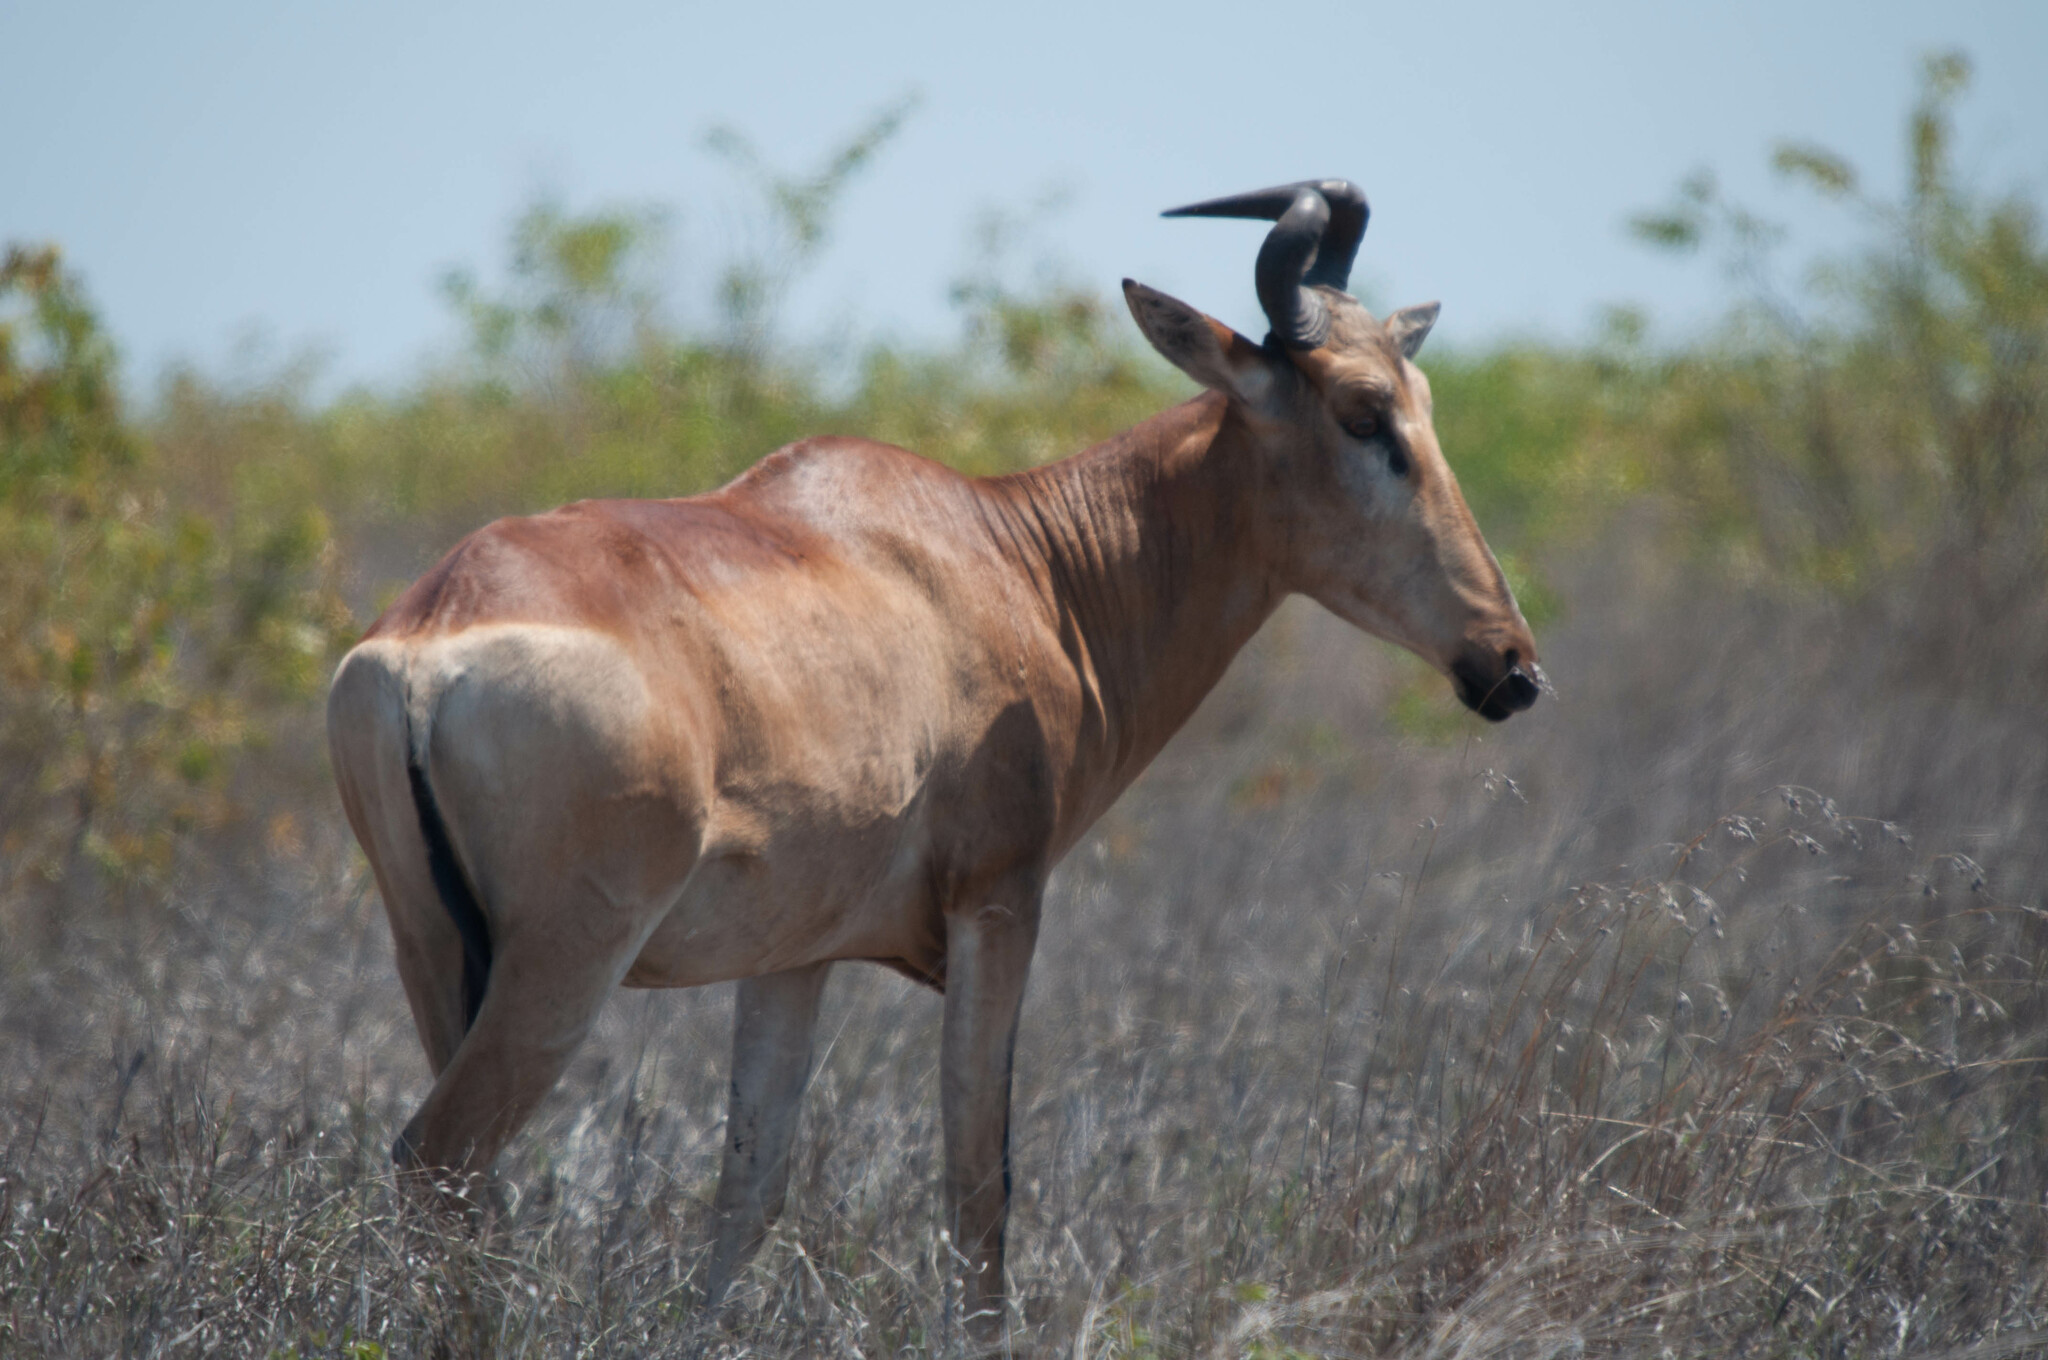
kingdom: Animalia
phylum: Chordata
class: Mammalia
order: Artiodactyla
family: Bovidae
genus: Alcelaphus
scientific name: Alcelaphus buselaphus
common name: Hartebeest
